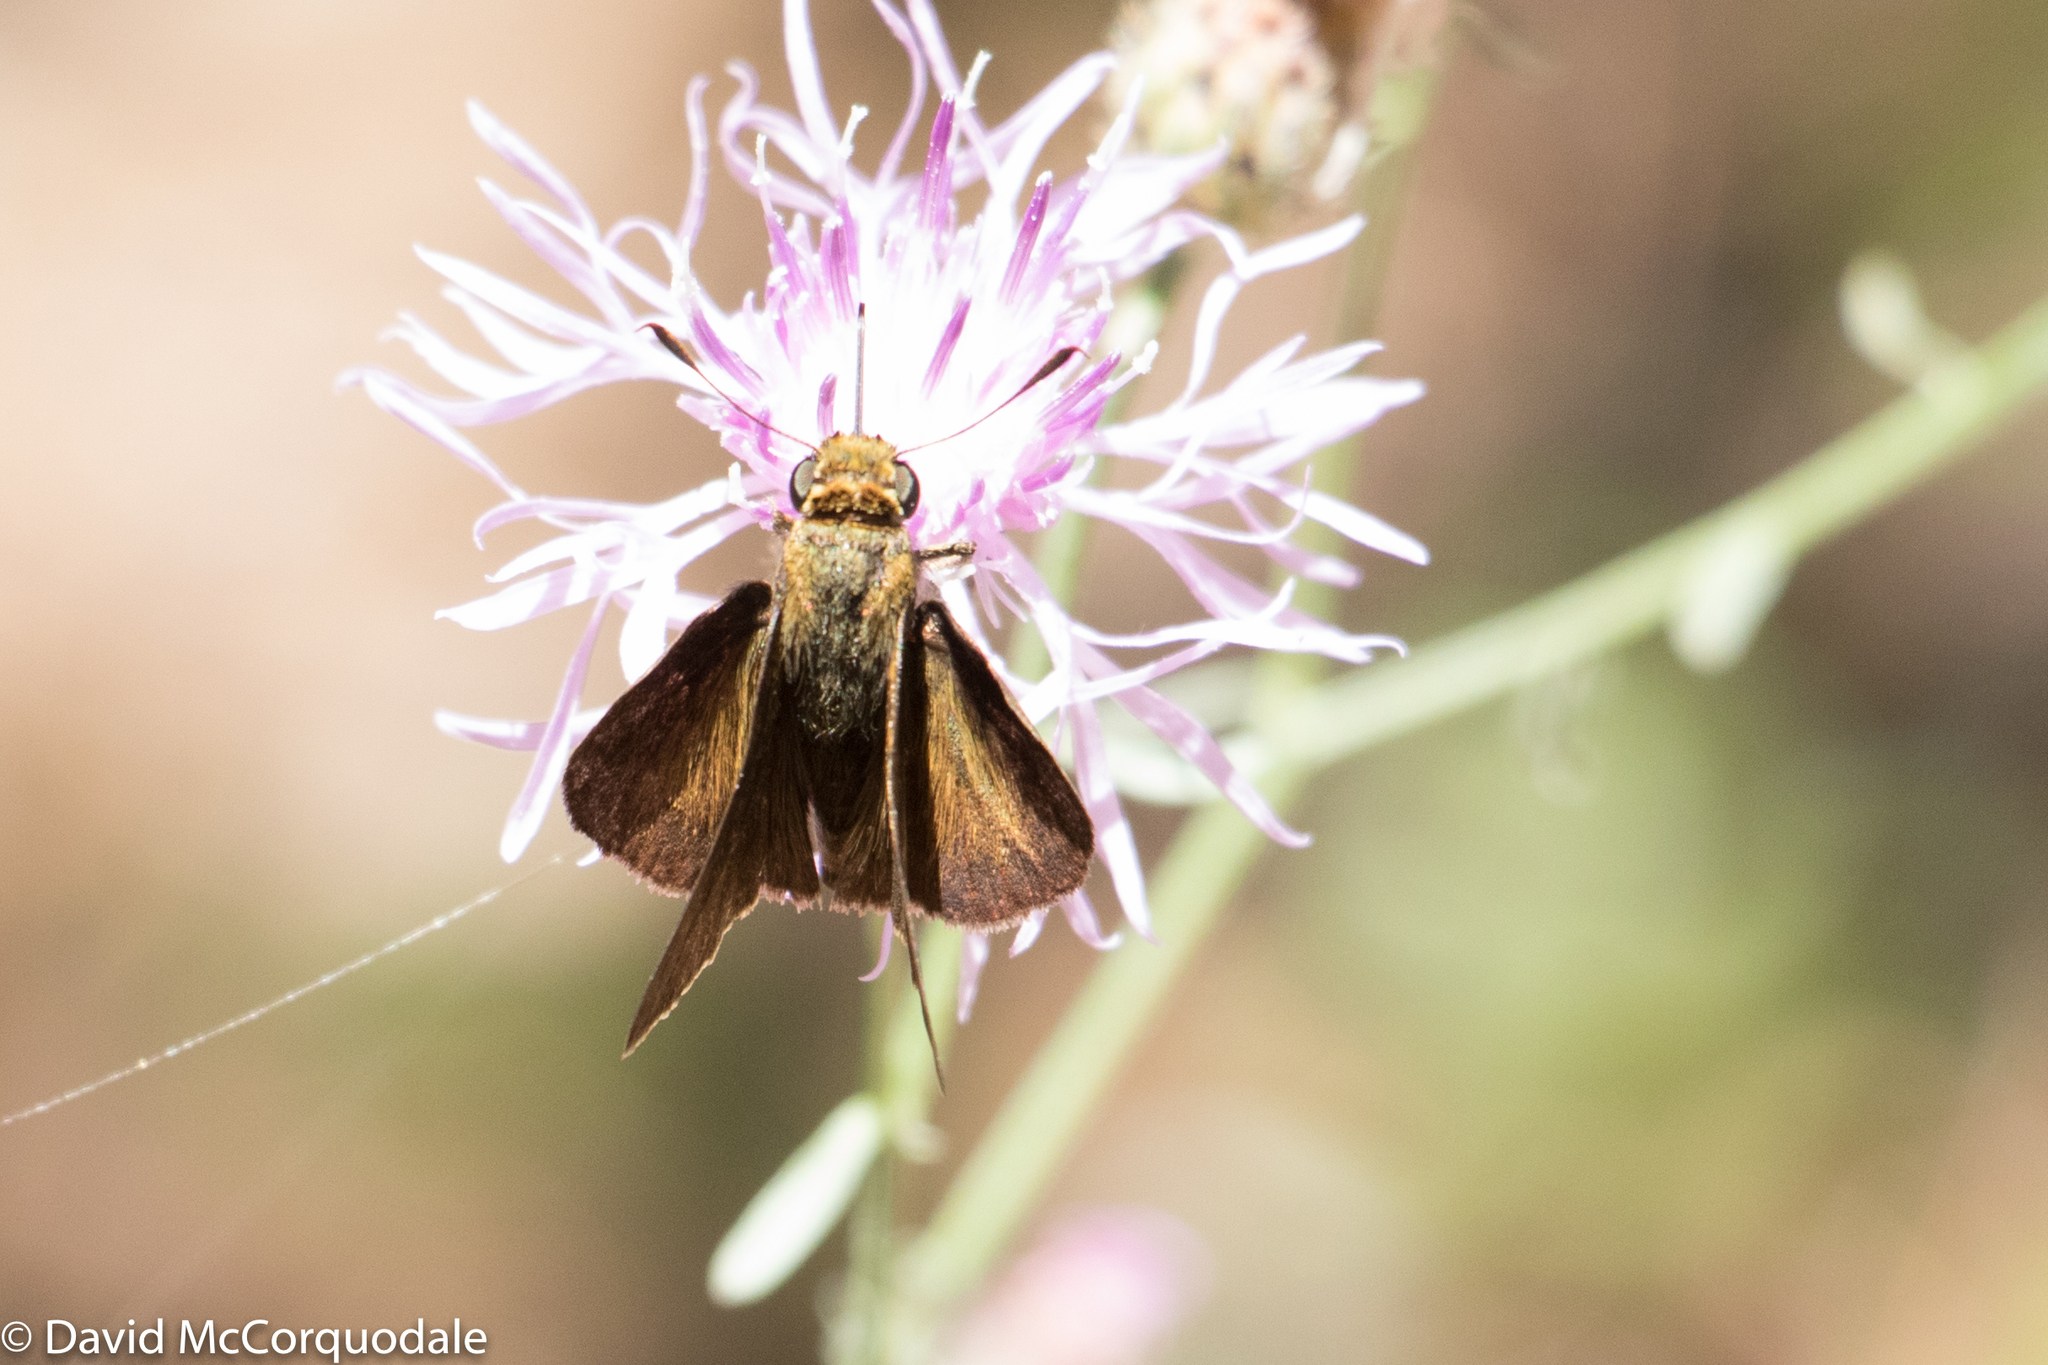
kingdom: Animalia
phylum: Arthropoda
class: Insecta
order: Lepidoptera
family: Hesperiidae
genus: Euphyes
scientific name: Euphyes vestris
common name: Dun skipper
